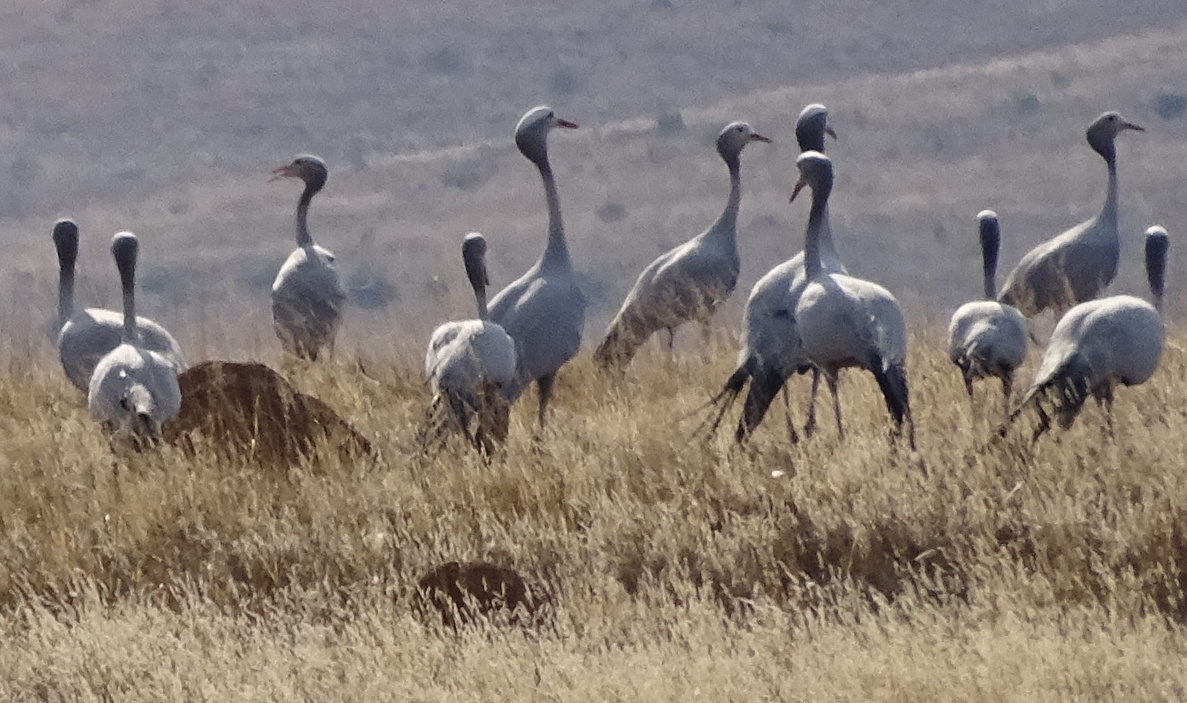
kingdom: Animalia
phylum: Chordata
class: Aves
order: Gruiformes
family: Gruidae
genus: Anthropoides
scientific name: Anthropoides paradiseus
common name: Blue crane
